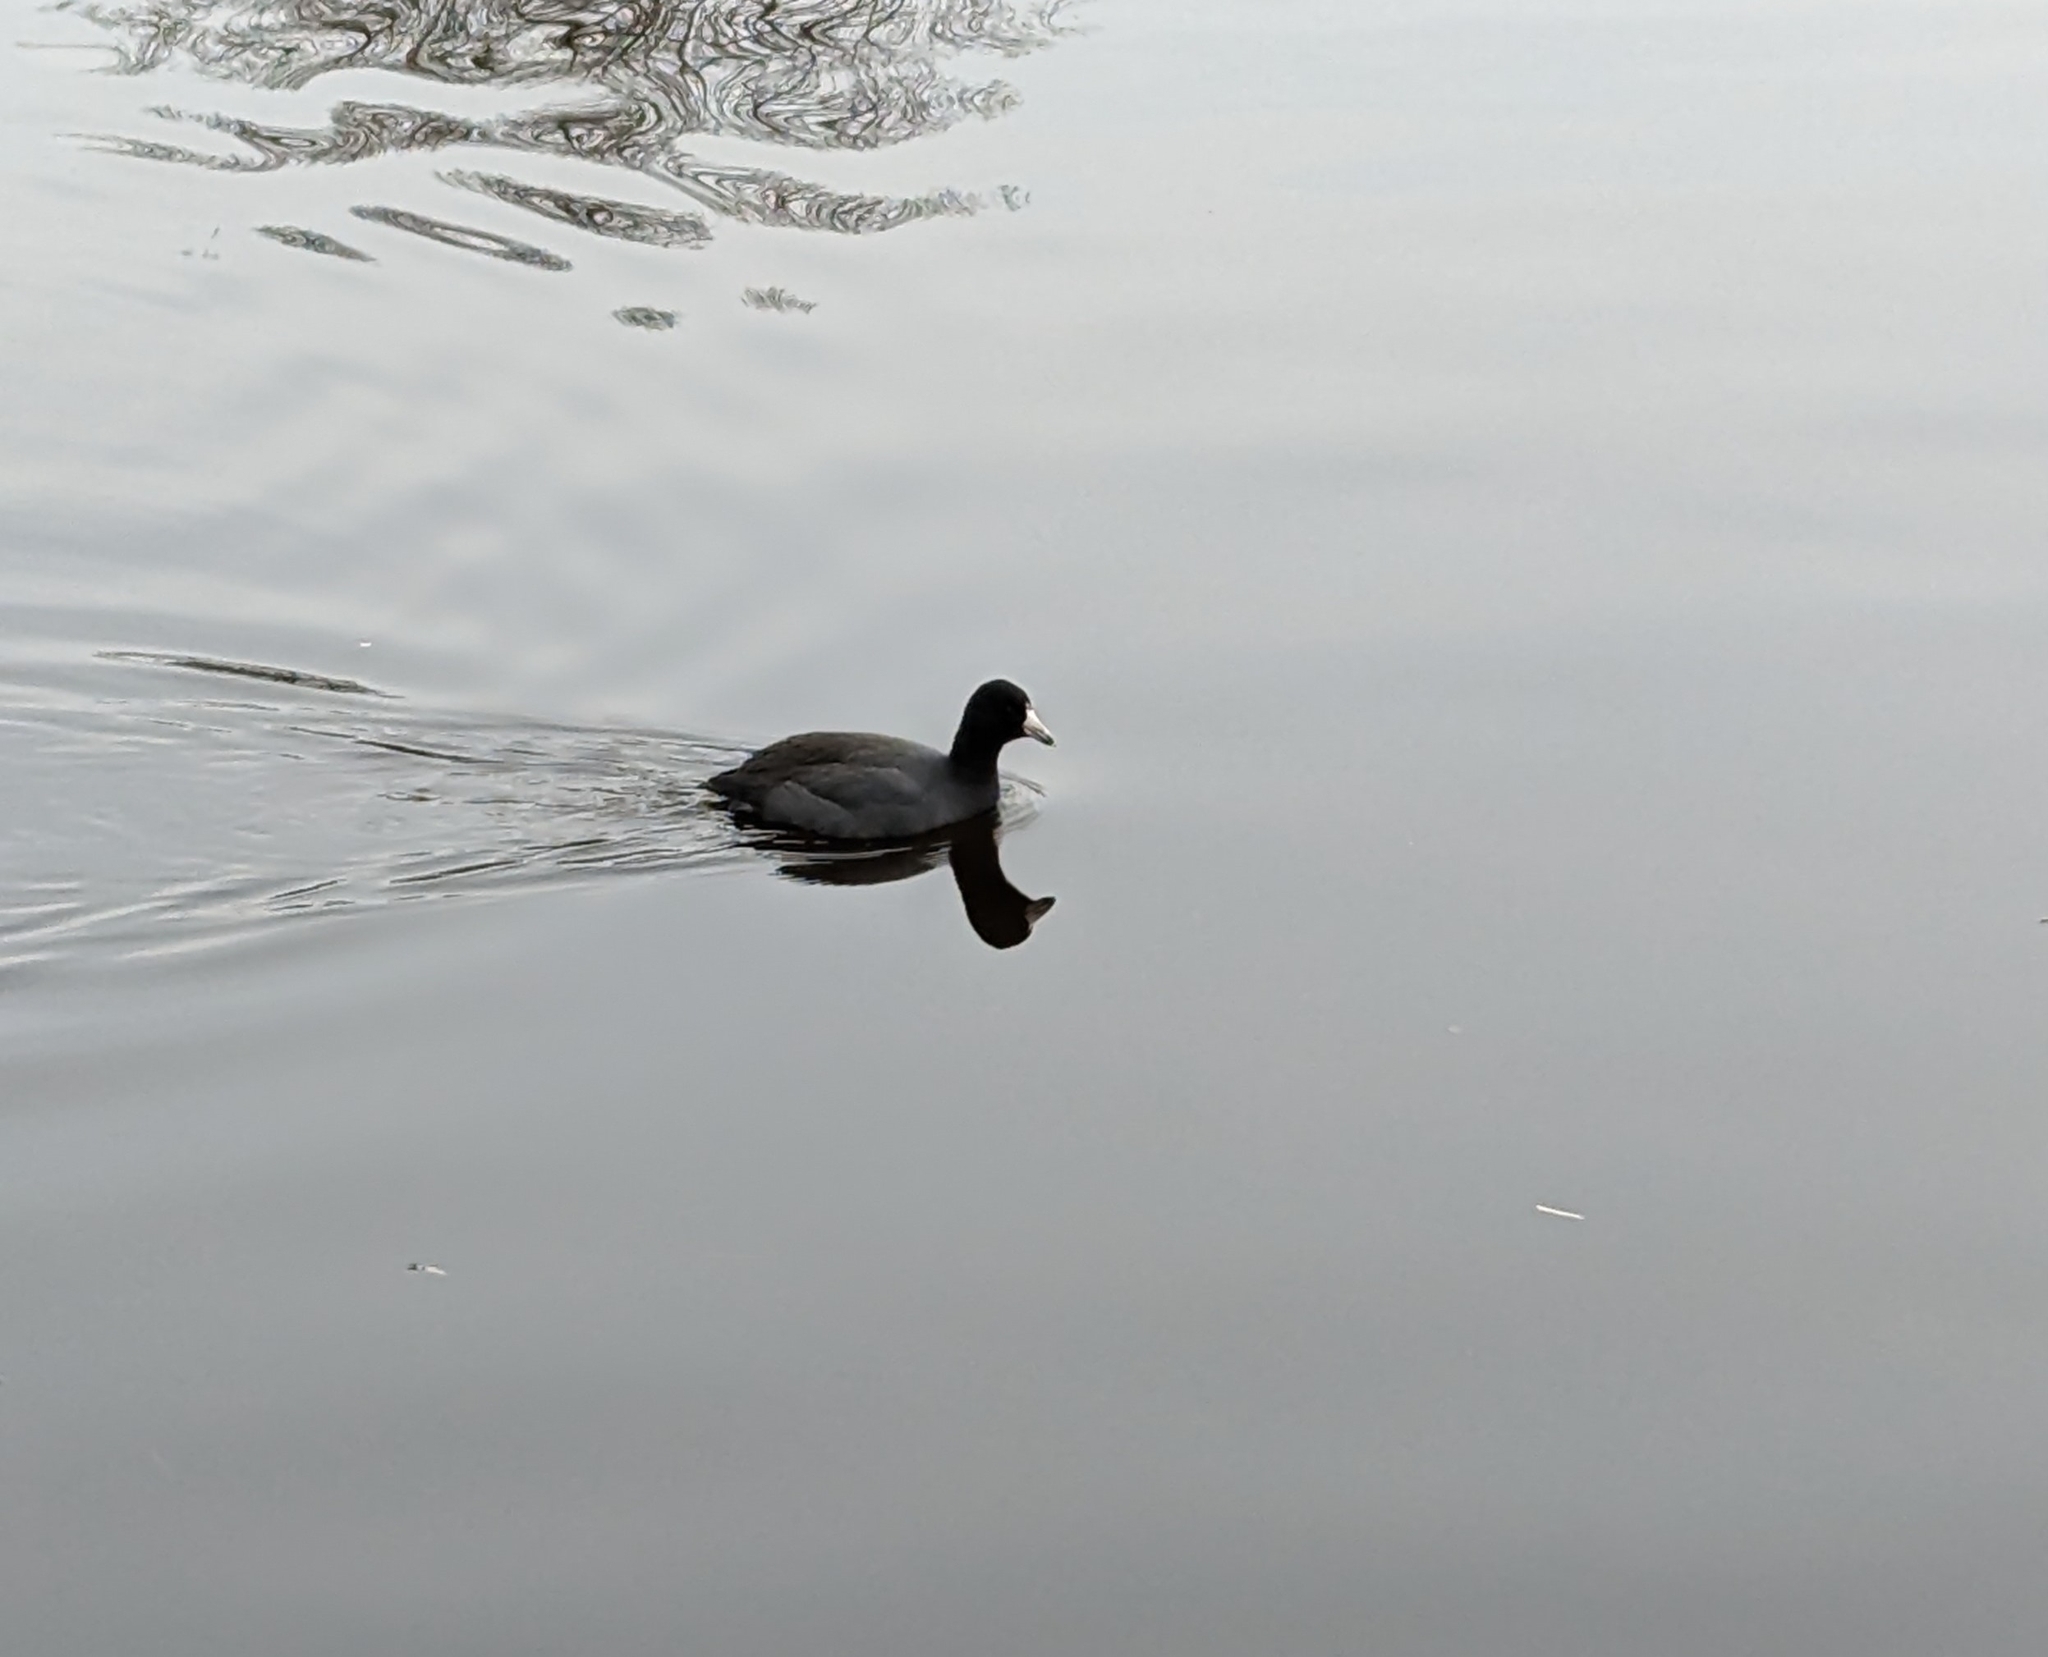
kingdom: Animalia
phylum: Chordata
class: Aves
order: Gruiformes
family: Rallidae
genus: Fulica
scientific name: Fulica americana
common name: American coot
